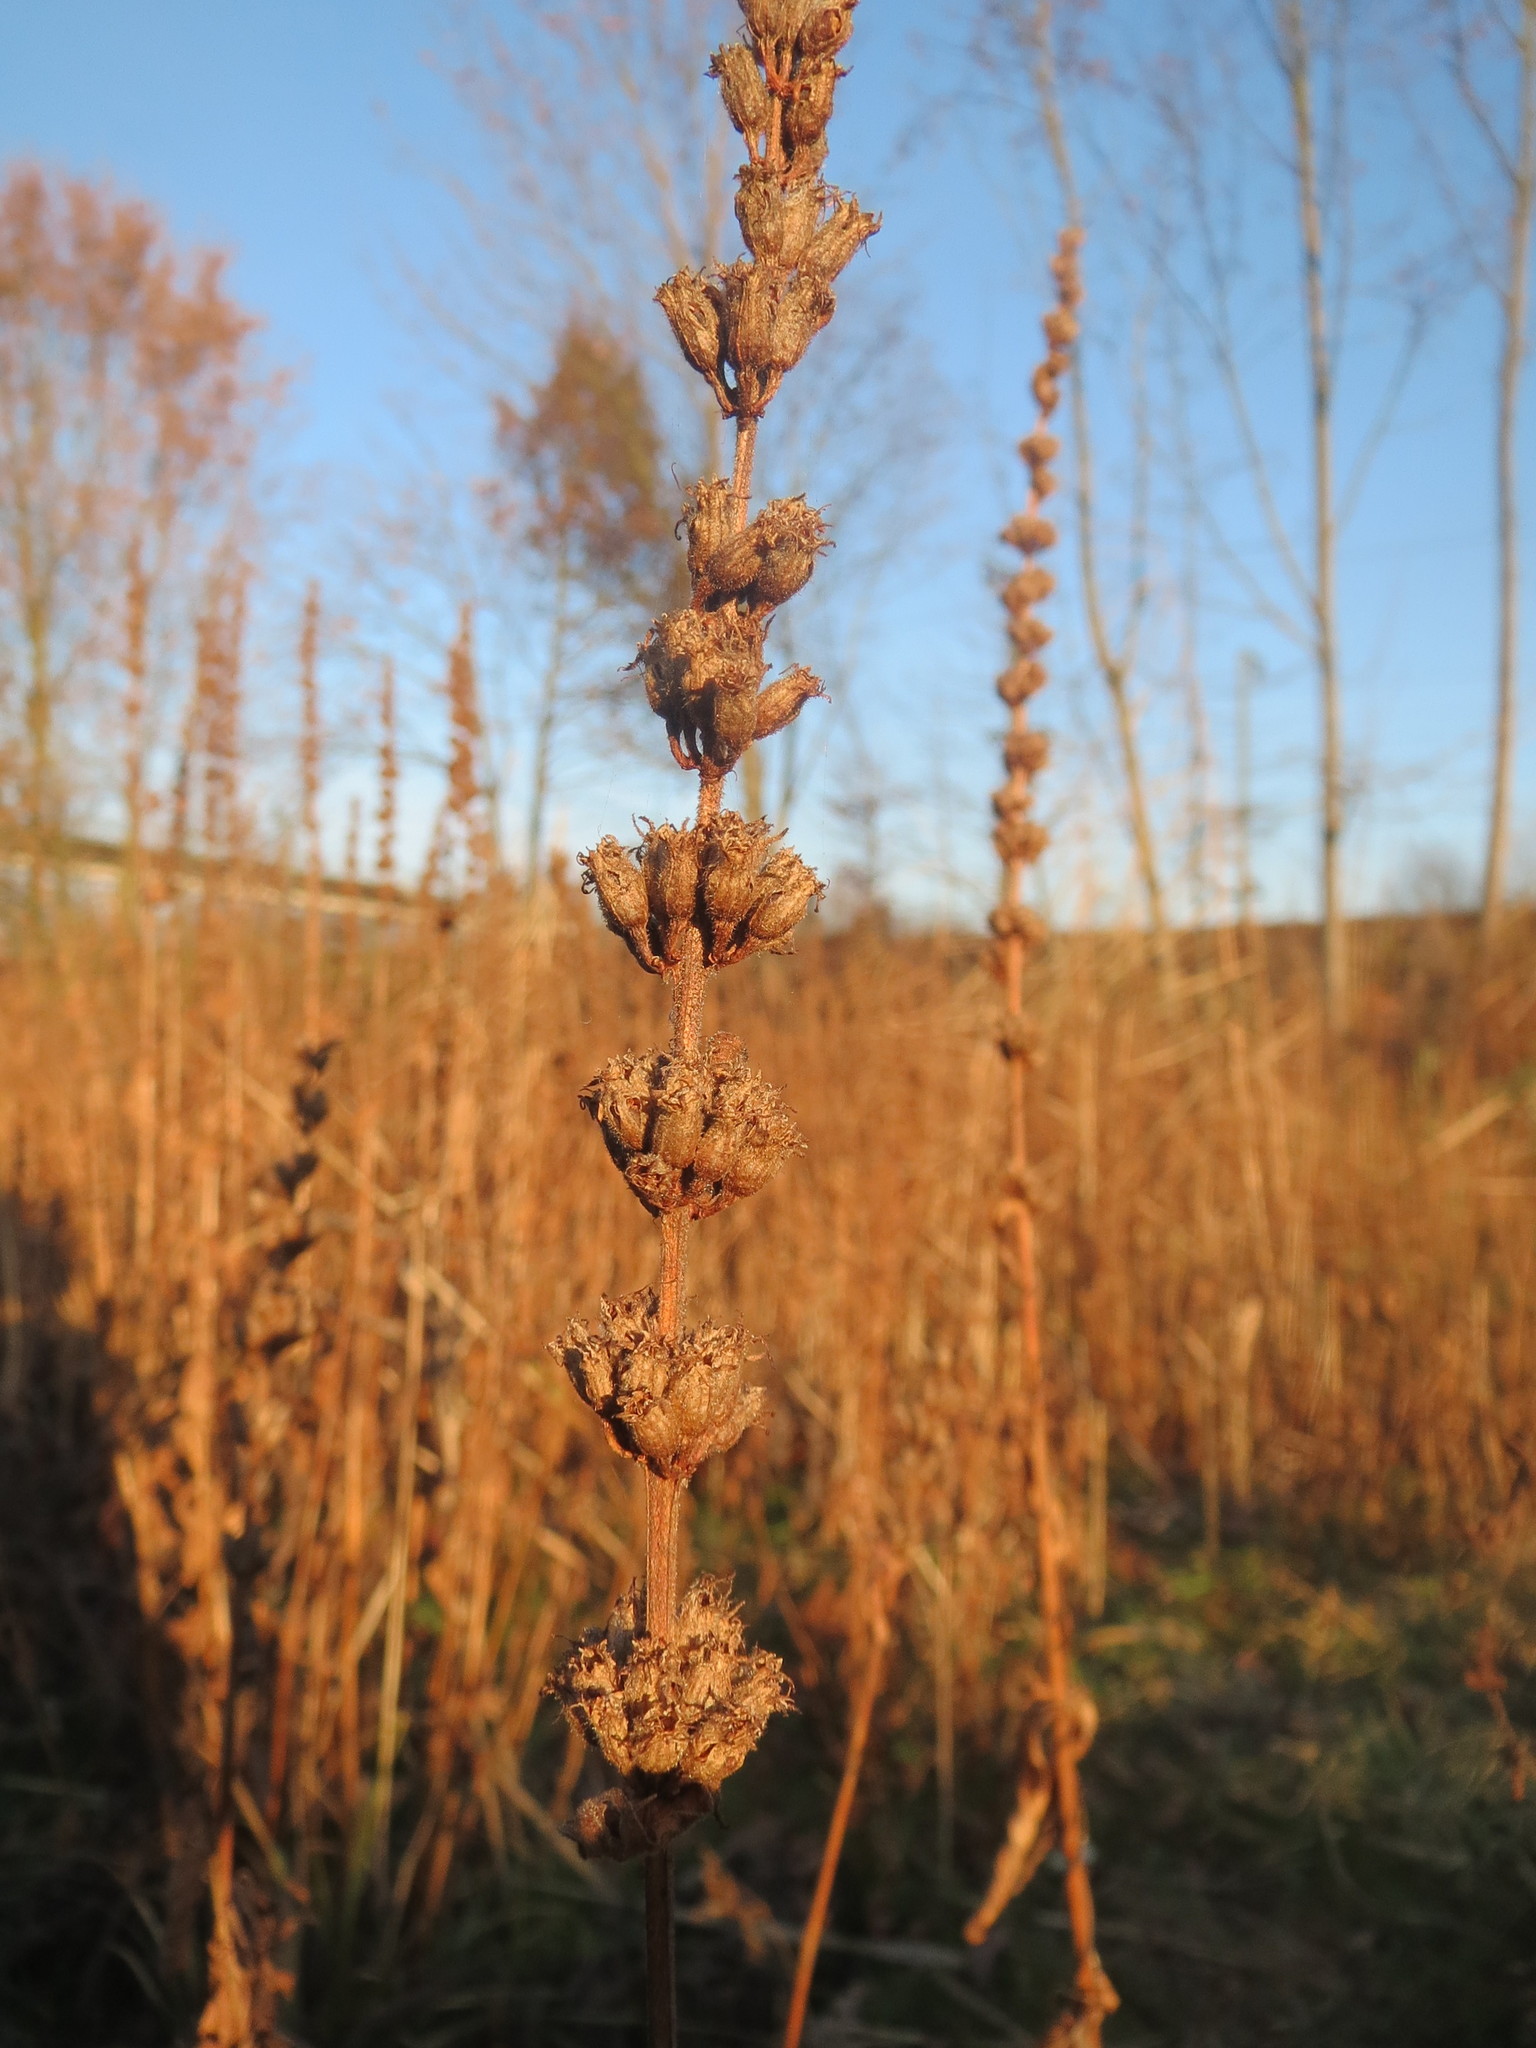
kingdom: Plantae
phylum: Tracheophyta
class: Magnoliopsida
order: Myrtales
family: Lythraceae
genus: Lythrum
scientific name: Lythrum salicaria
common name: Purple loosestrife
